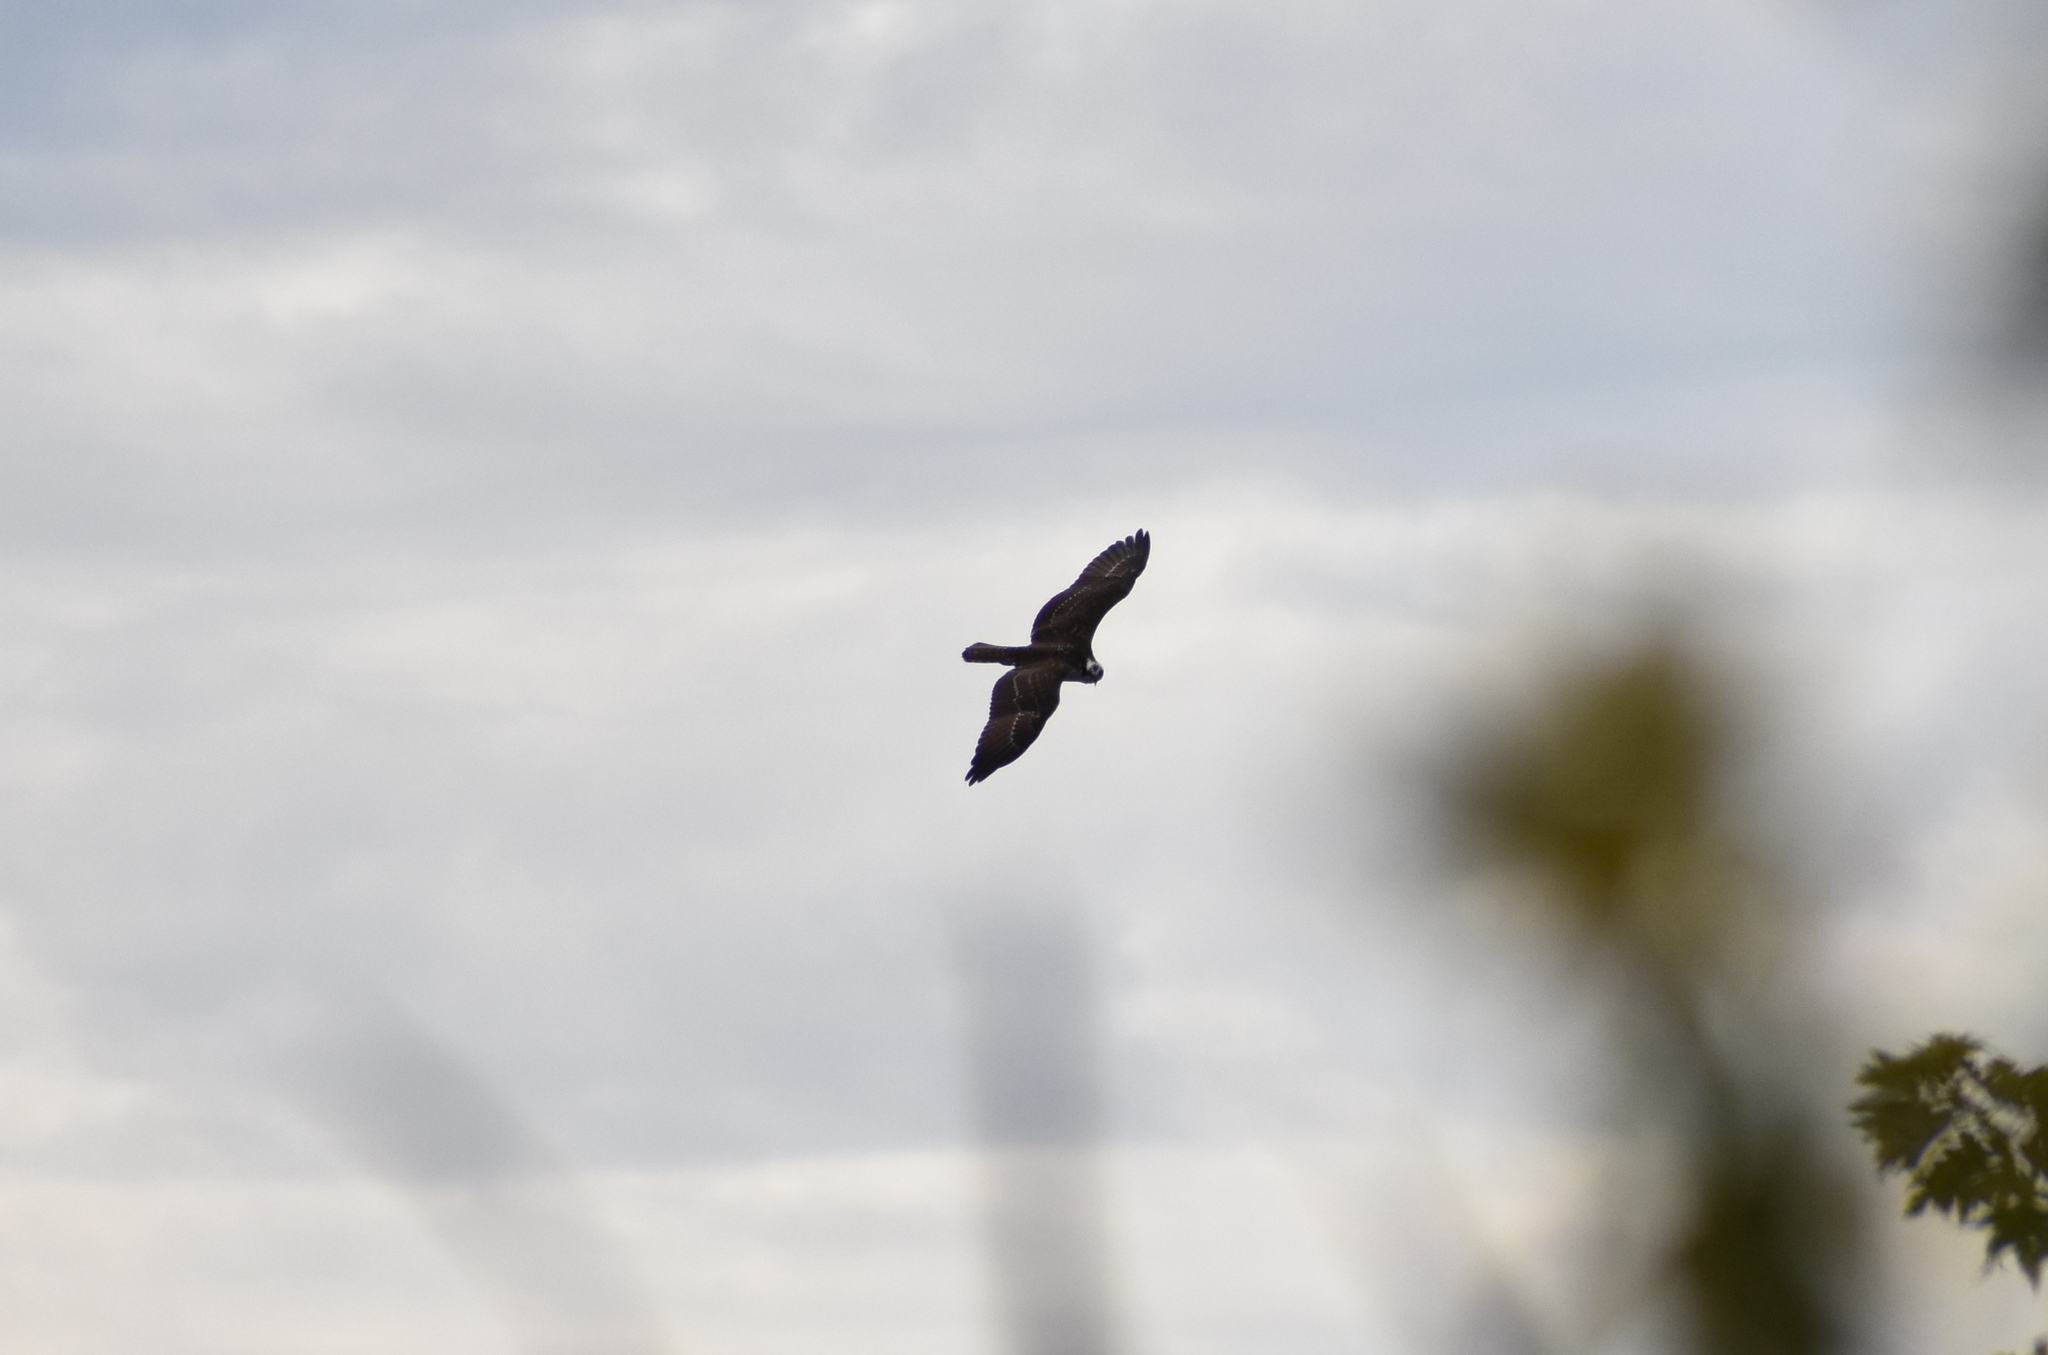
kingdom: Animalia
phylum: Chordata
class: Aves
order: Accipitriformes
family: Pandionidae
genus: Pandion
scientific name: Pandion haliaetus
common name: Osprey
